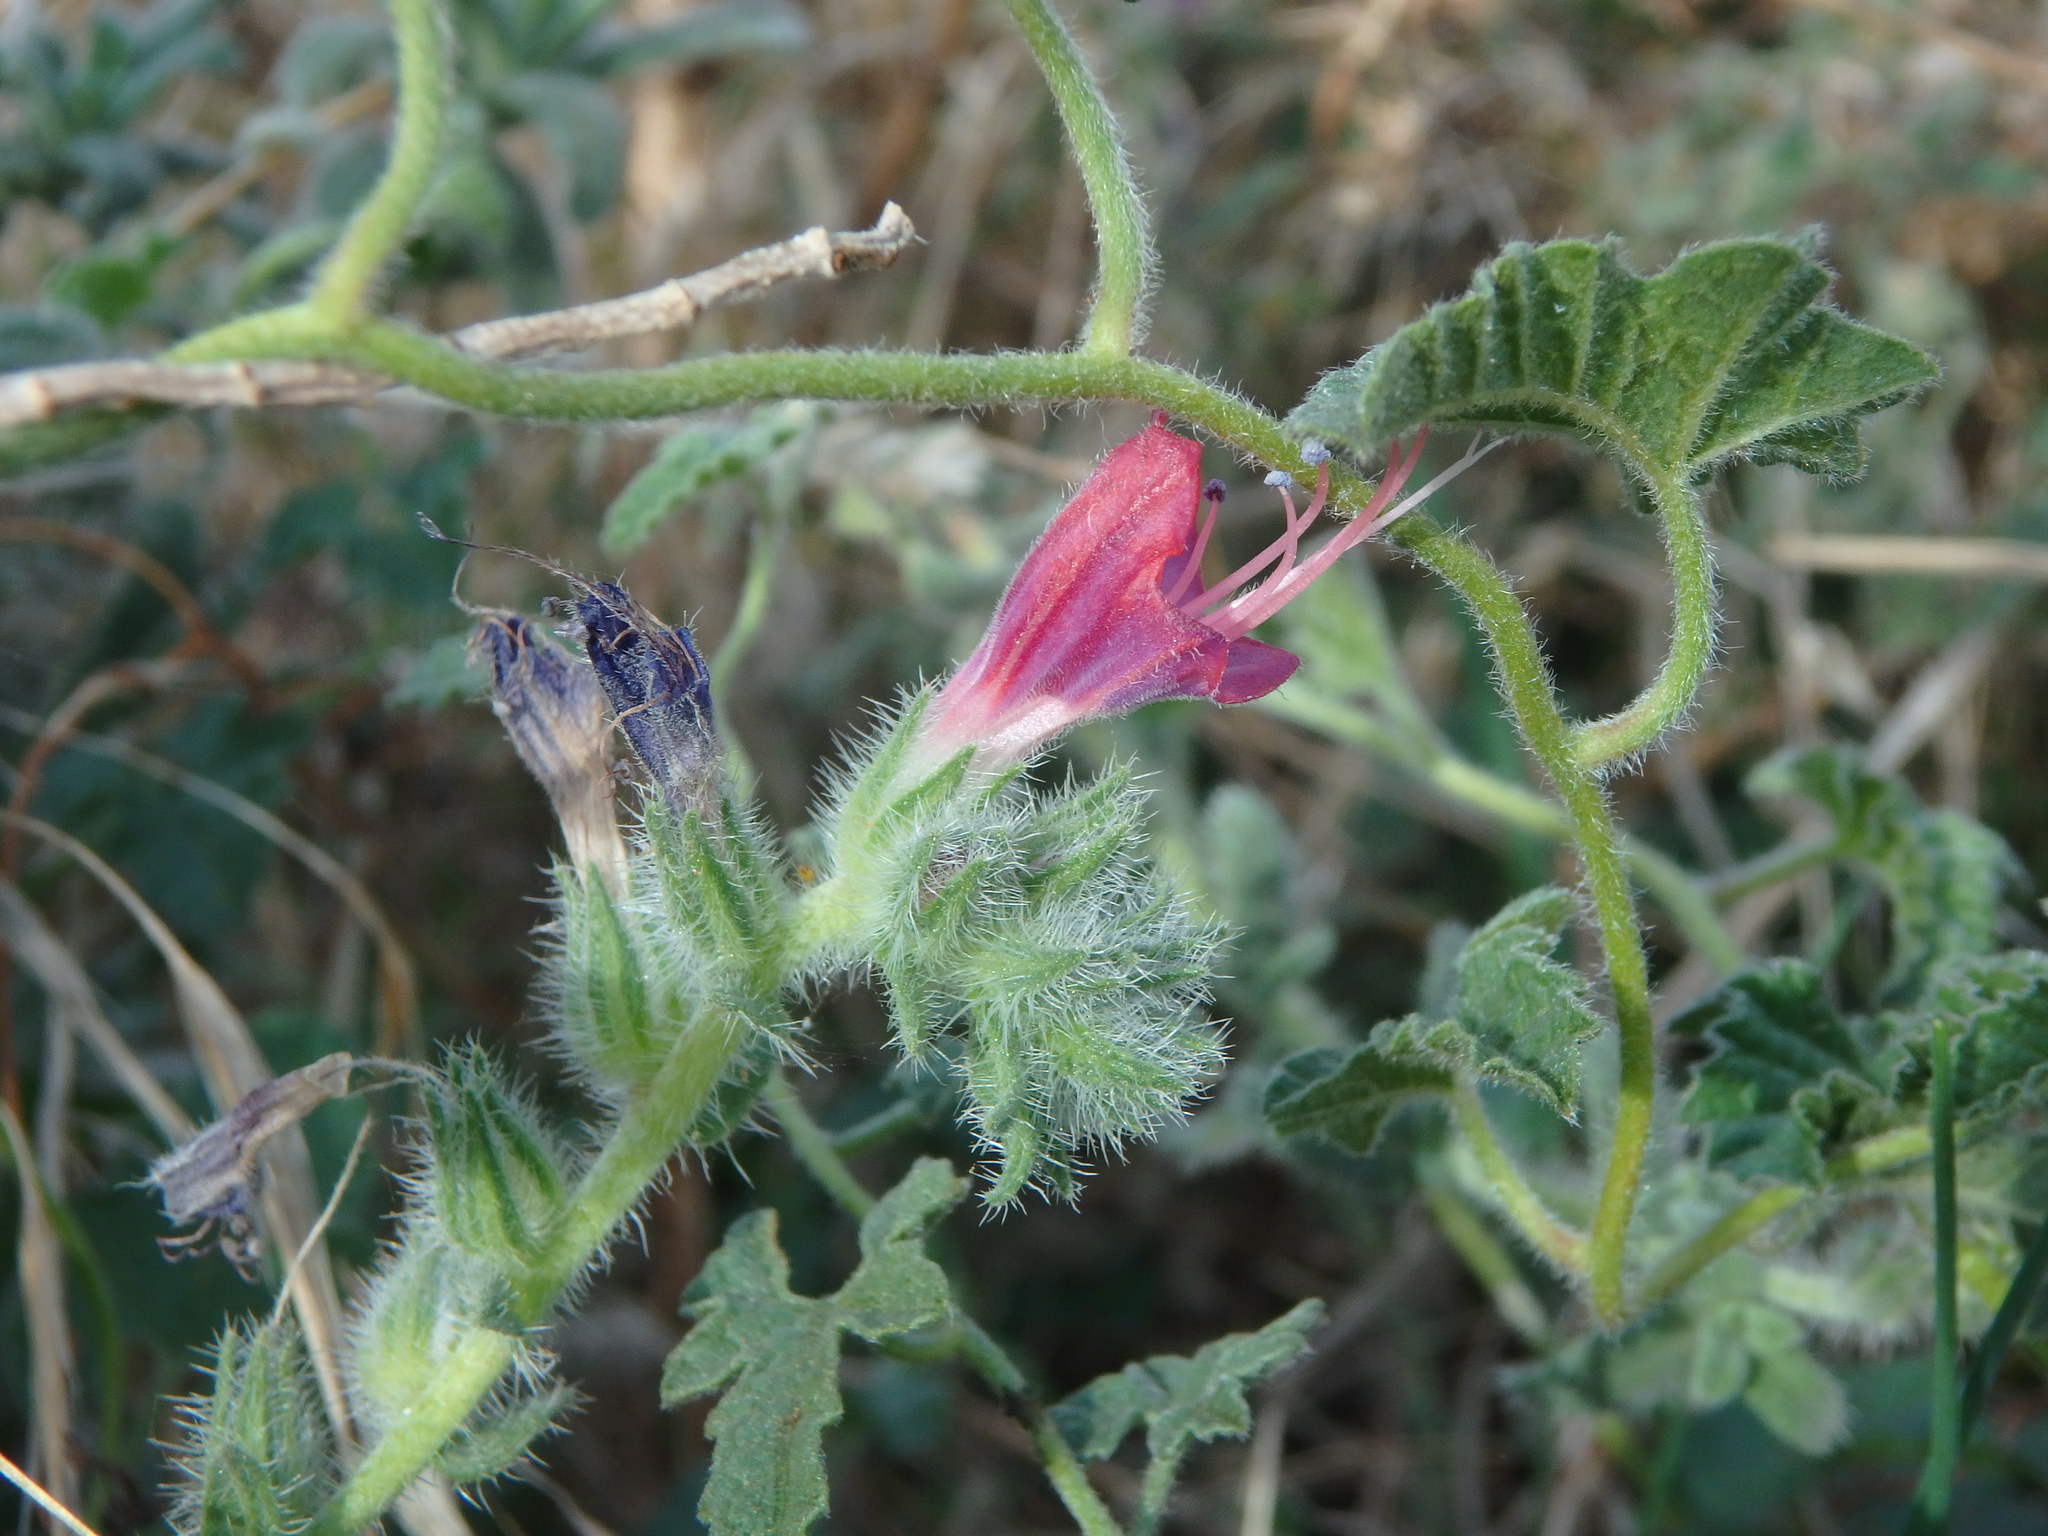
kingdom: Plantae
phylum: Tracheophyta
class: Magnoliopsida
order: Boraginales
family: Boraginaceae
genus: Echium
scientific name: Echium angustifolium
